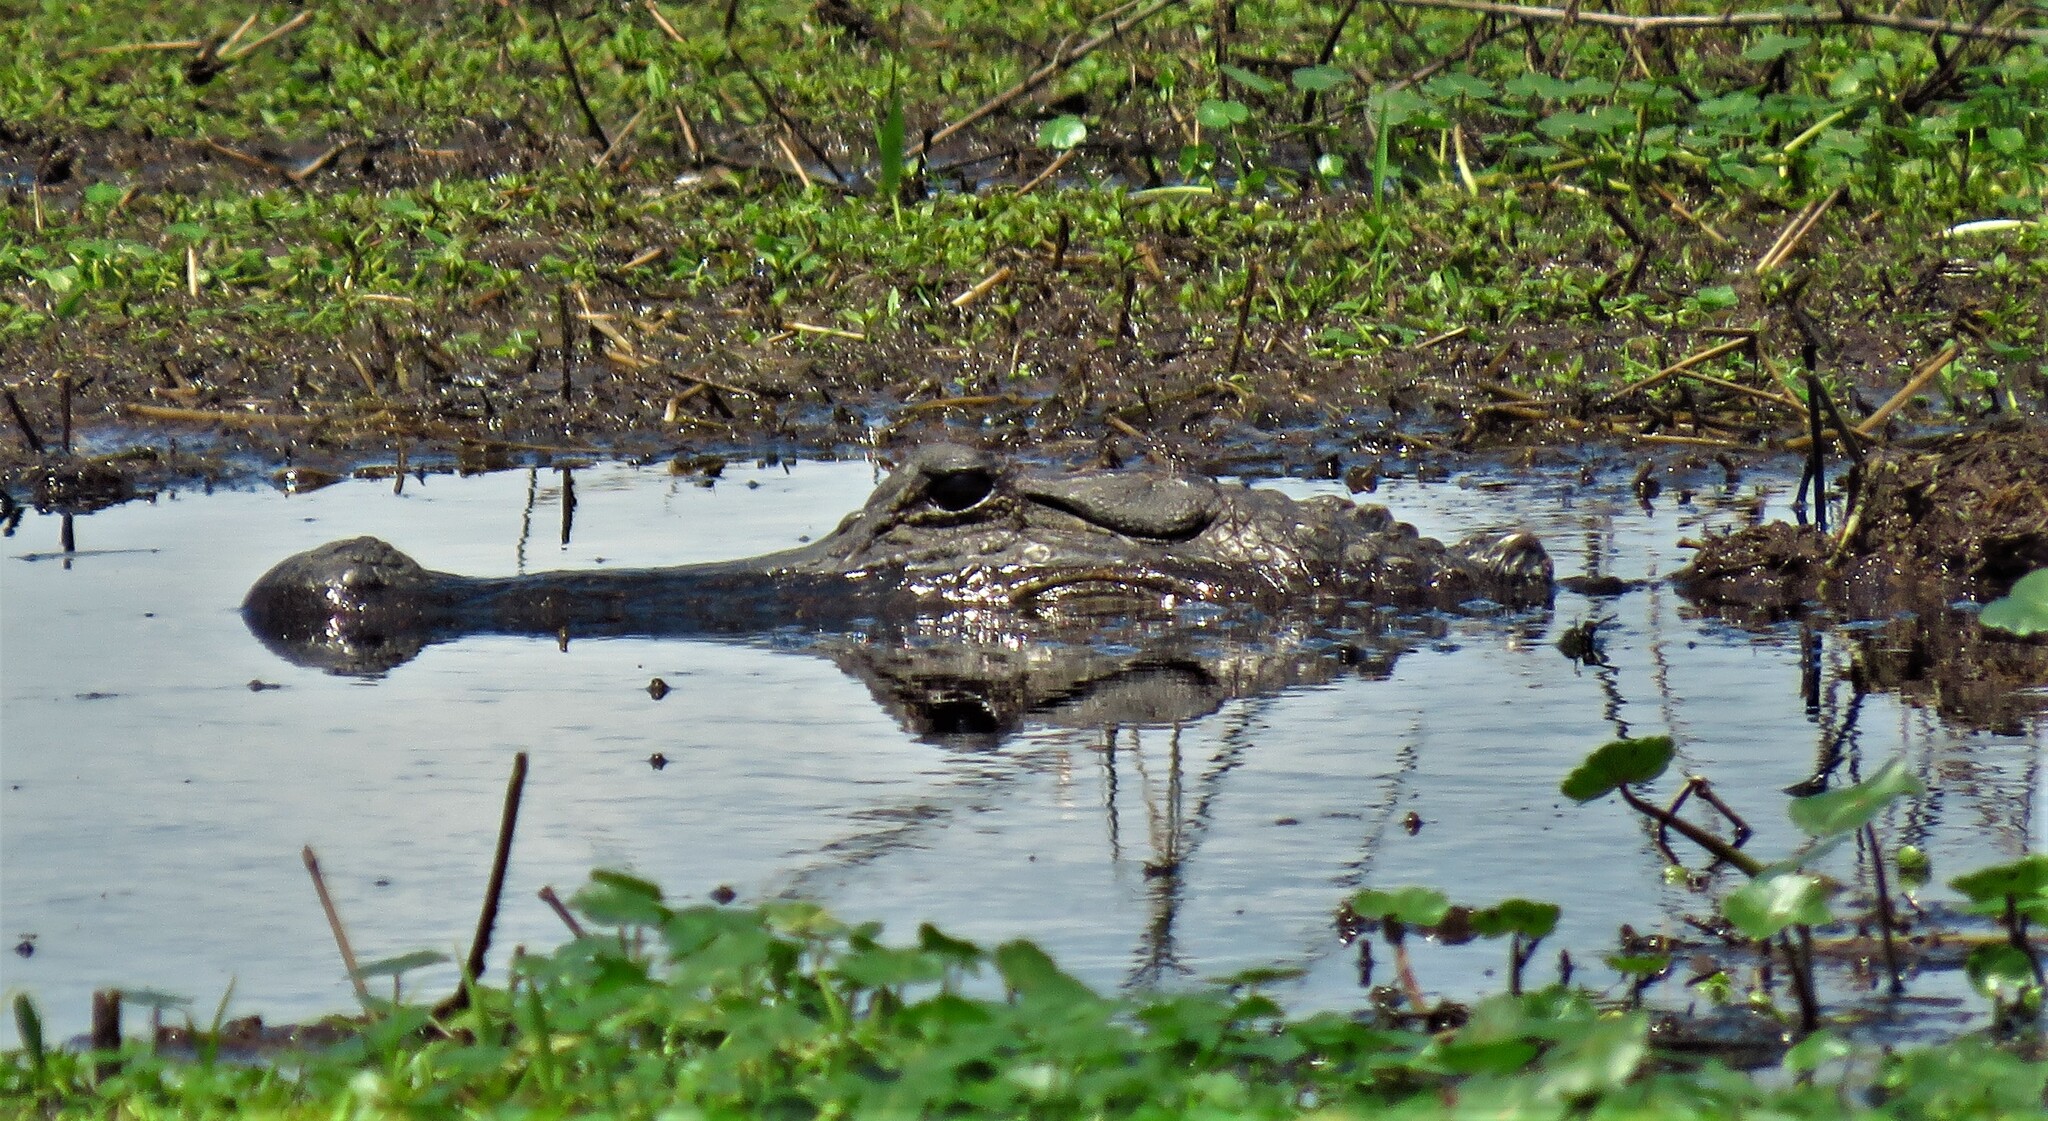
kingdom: Animalia
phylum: Chordata
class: Crocodylia
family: Alligatoridae
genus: Alligator
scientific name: Alligator mississippiensis
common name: American alligator
